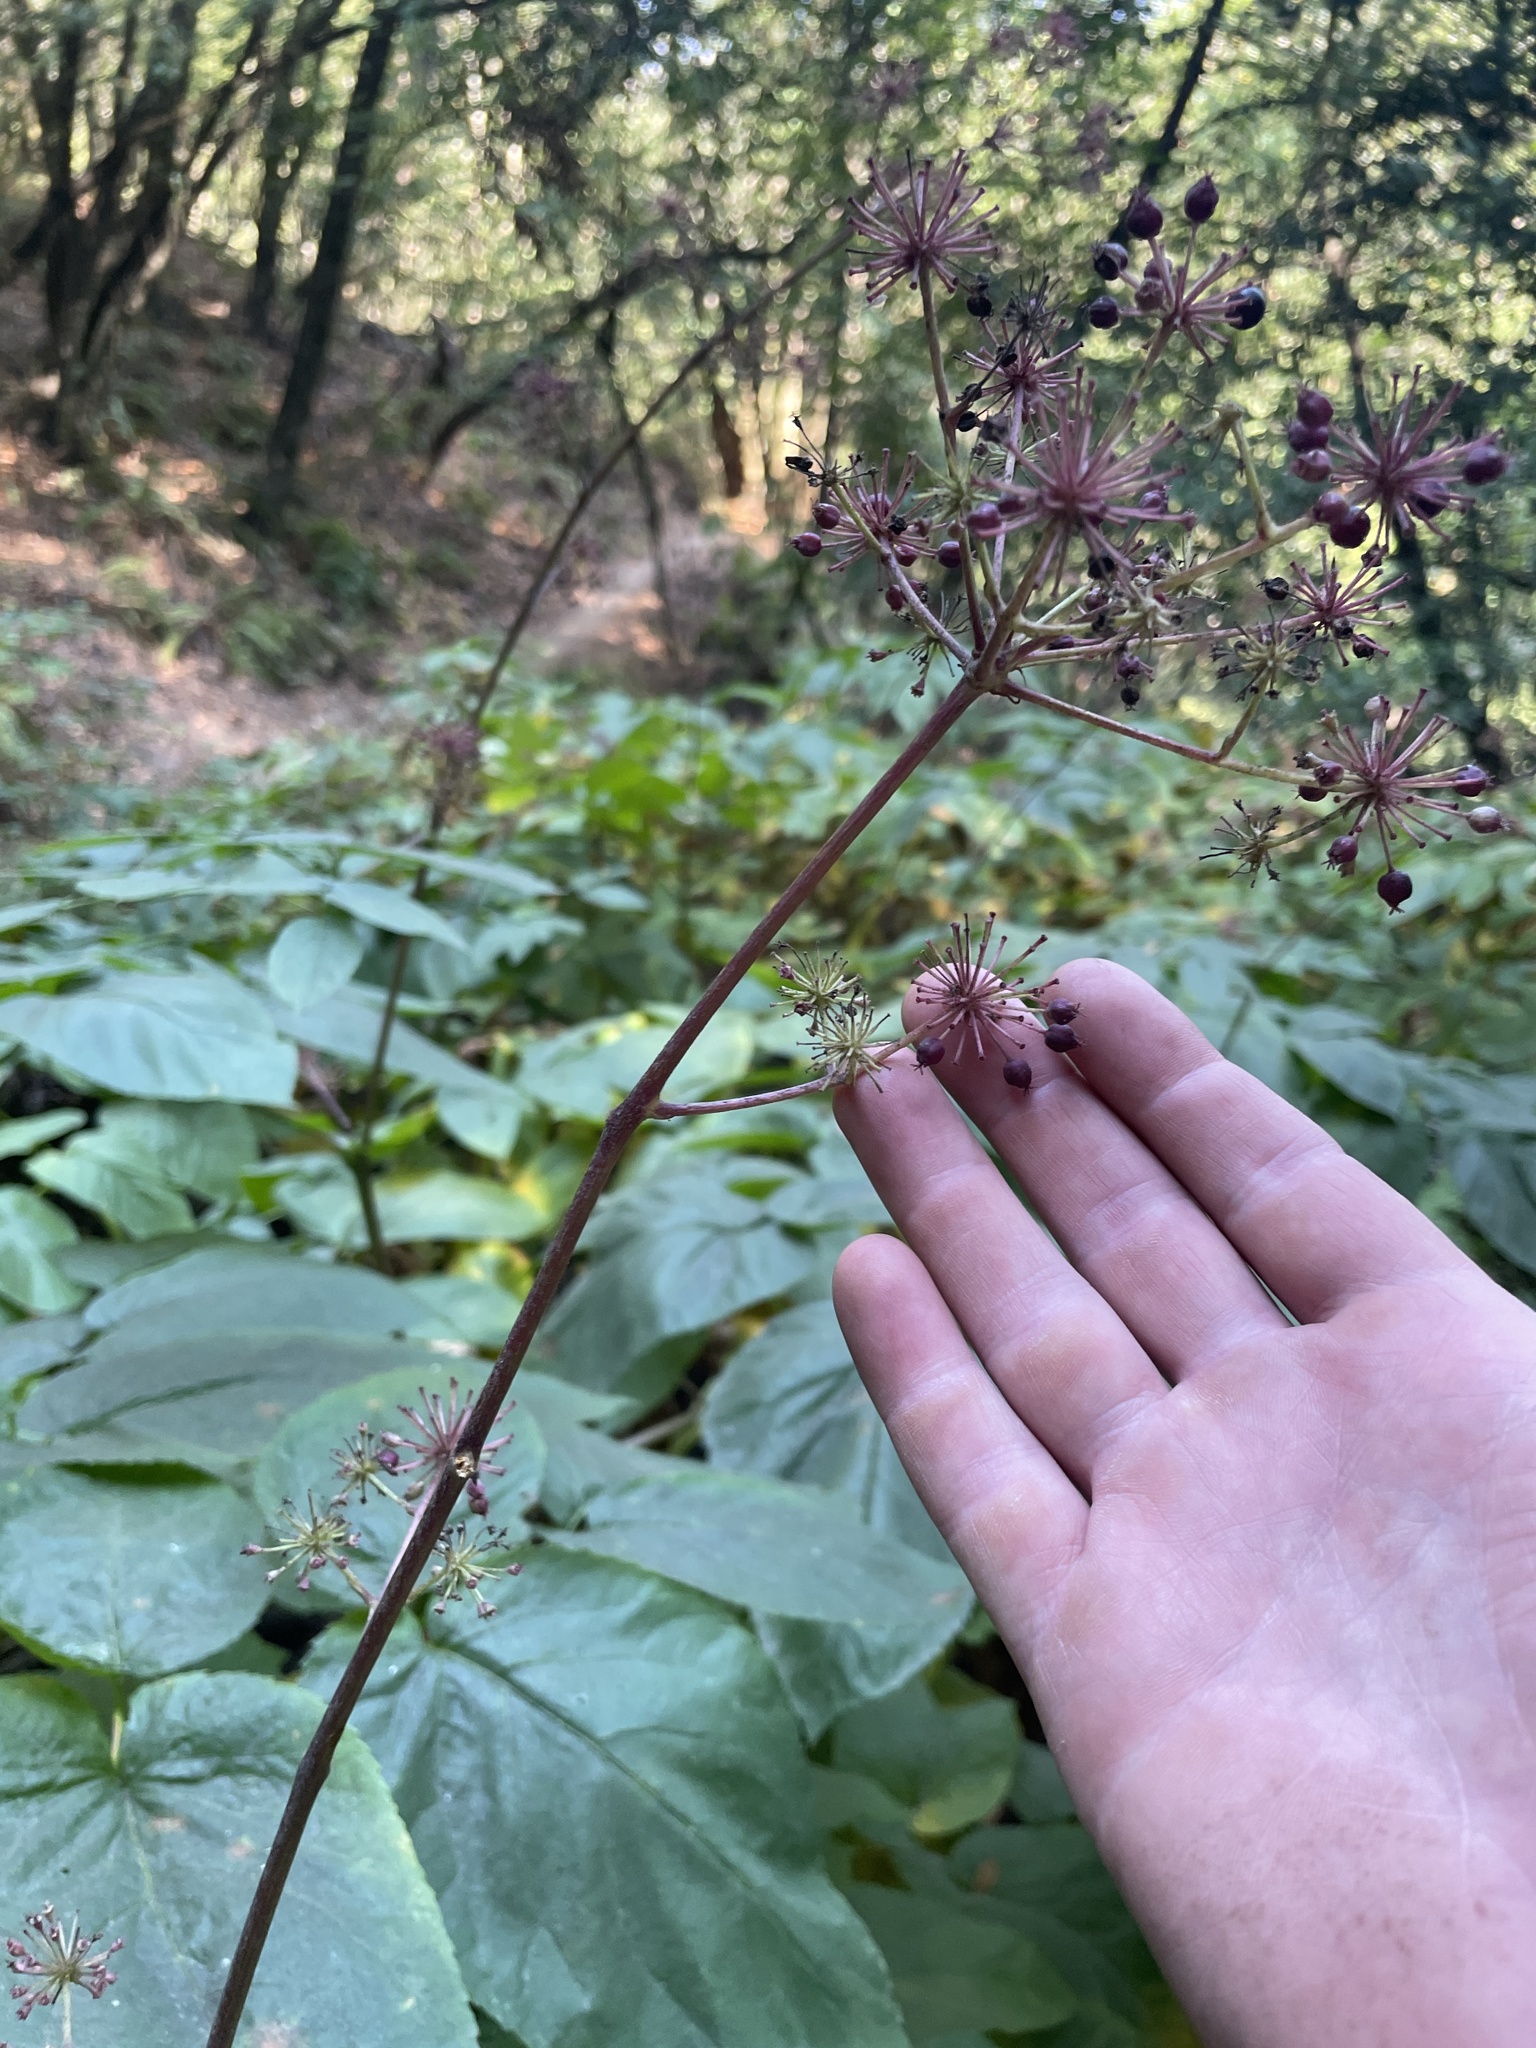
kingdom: Plantae
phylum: Tracheophyta
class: Magnoliopsida
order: Apiales
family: Araliaceae
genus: Aralia
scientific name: Aralia californica
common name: California-ginseng
